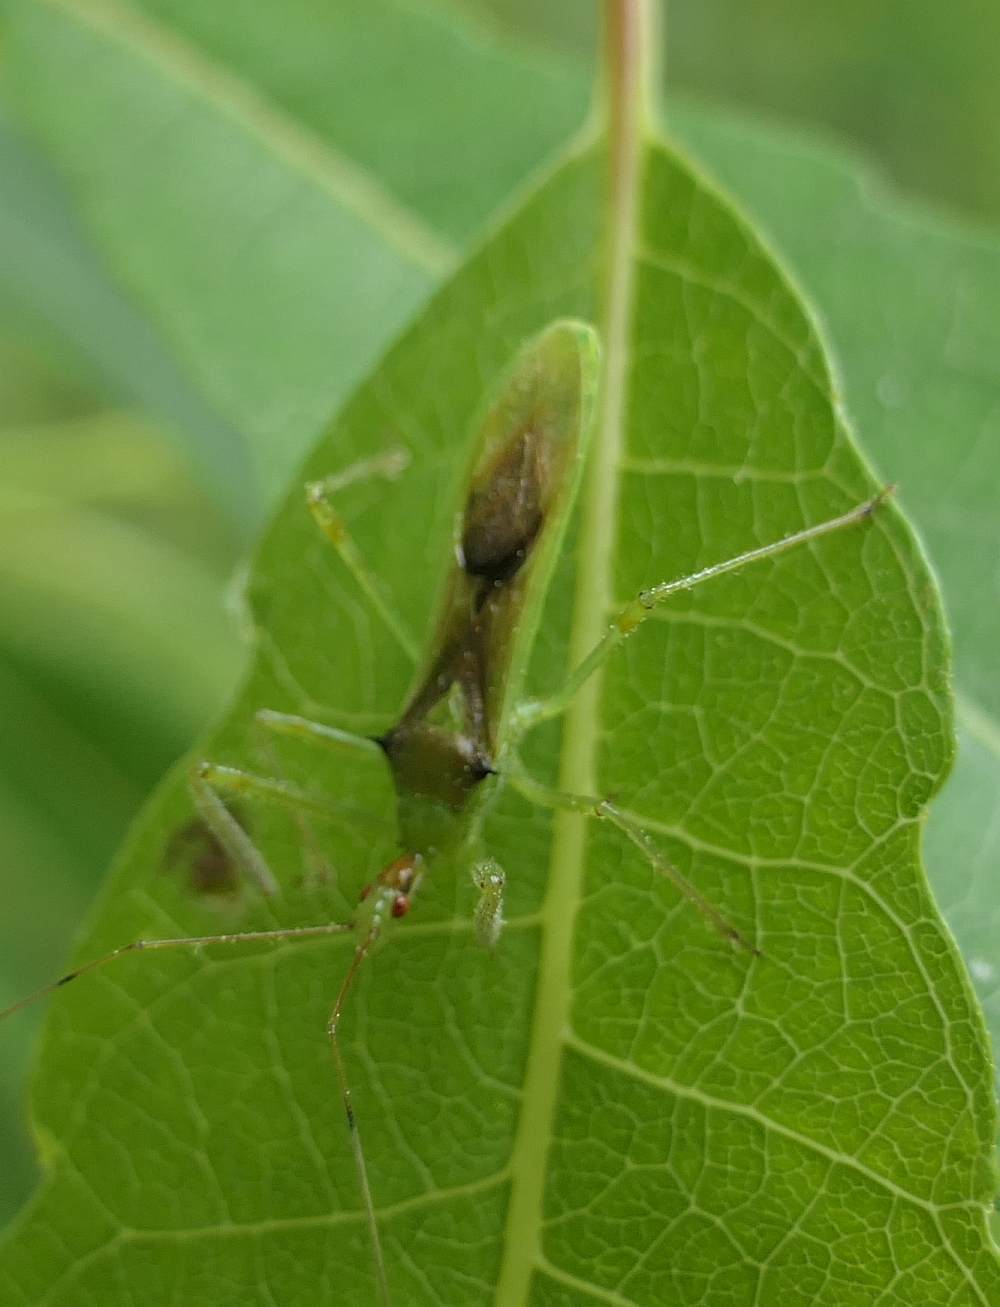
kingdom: Animalia
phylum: Arthropoda
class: Insecta
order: Hemiptera
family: Reduviidae
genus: Zelus
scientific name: Zelus luridus
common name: Pale green assassin bug
